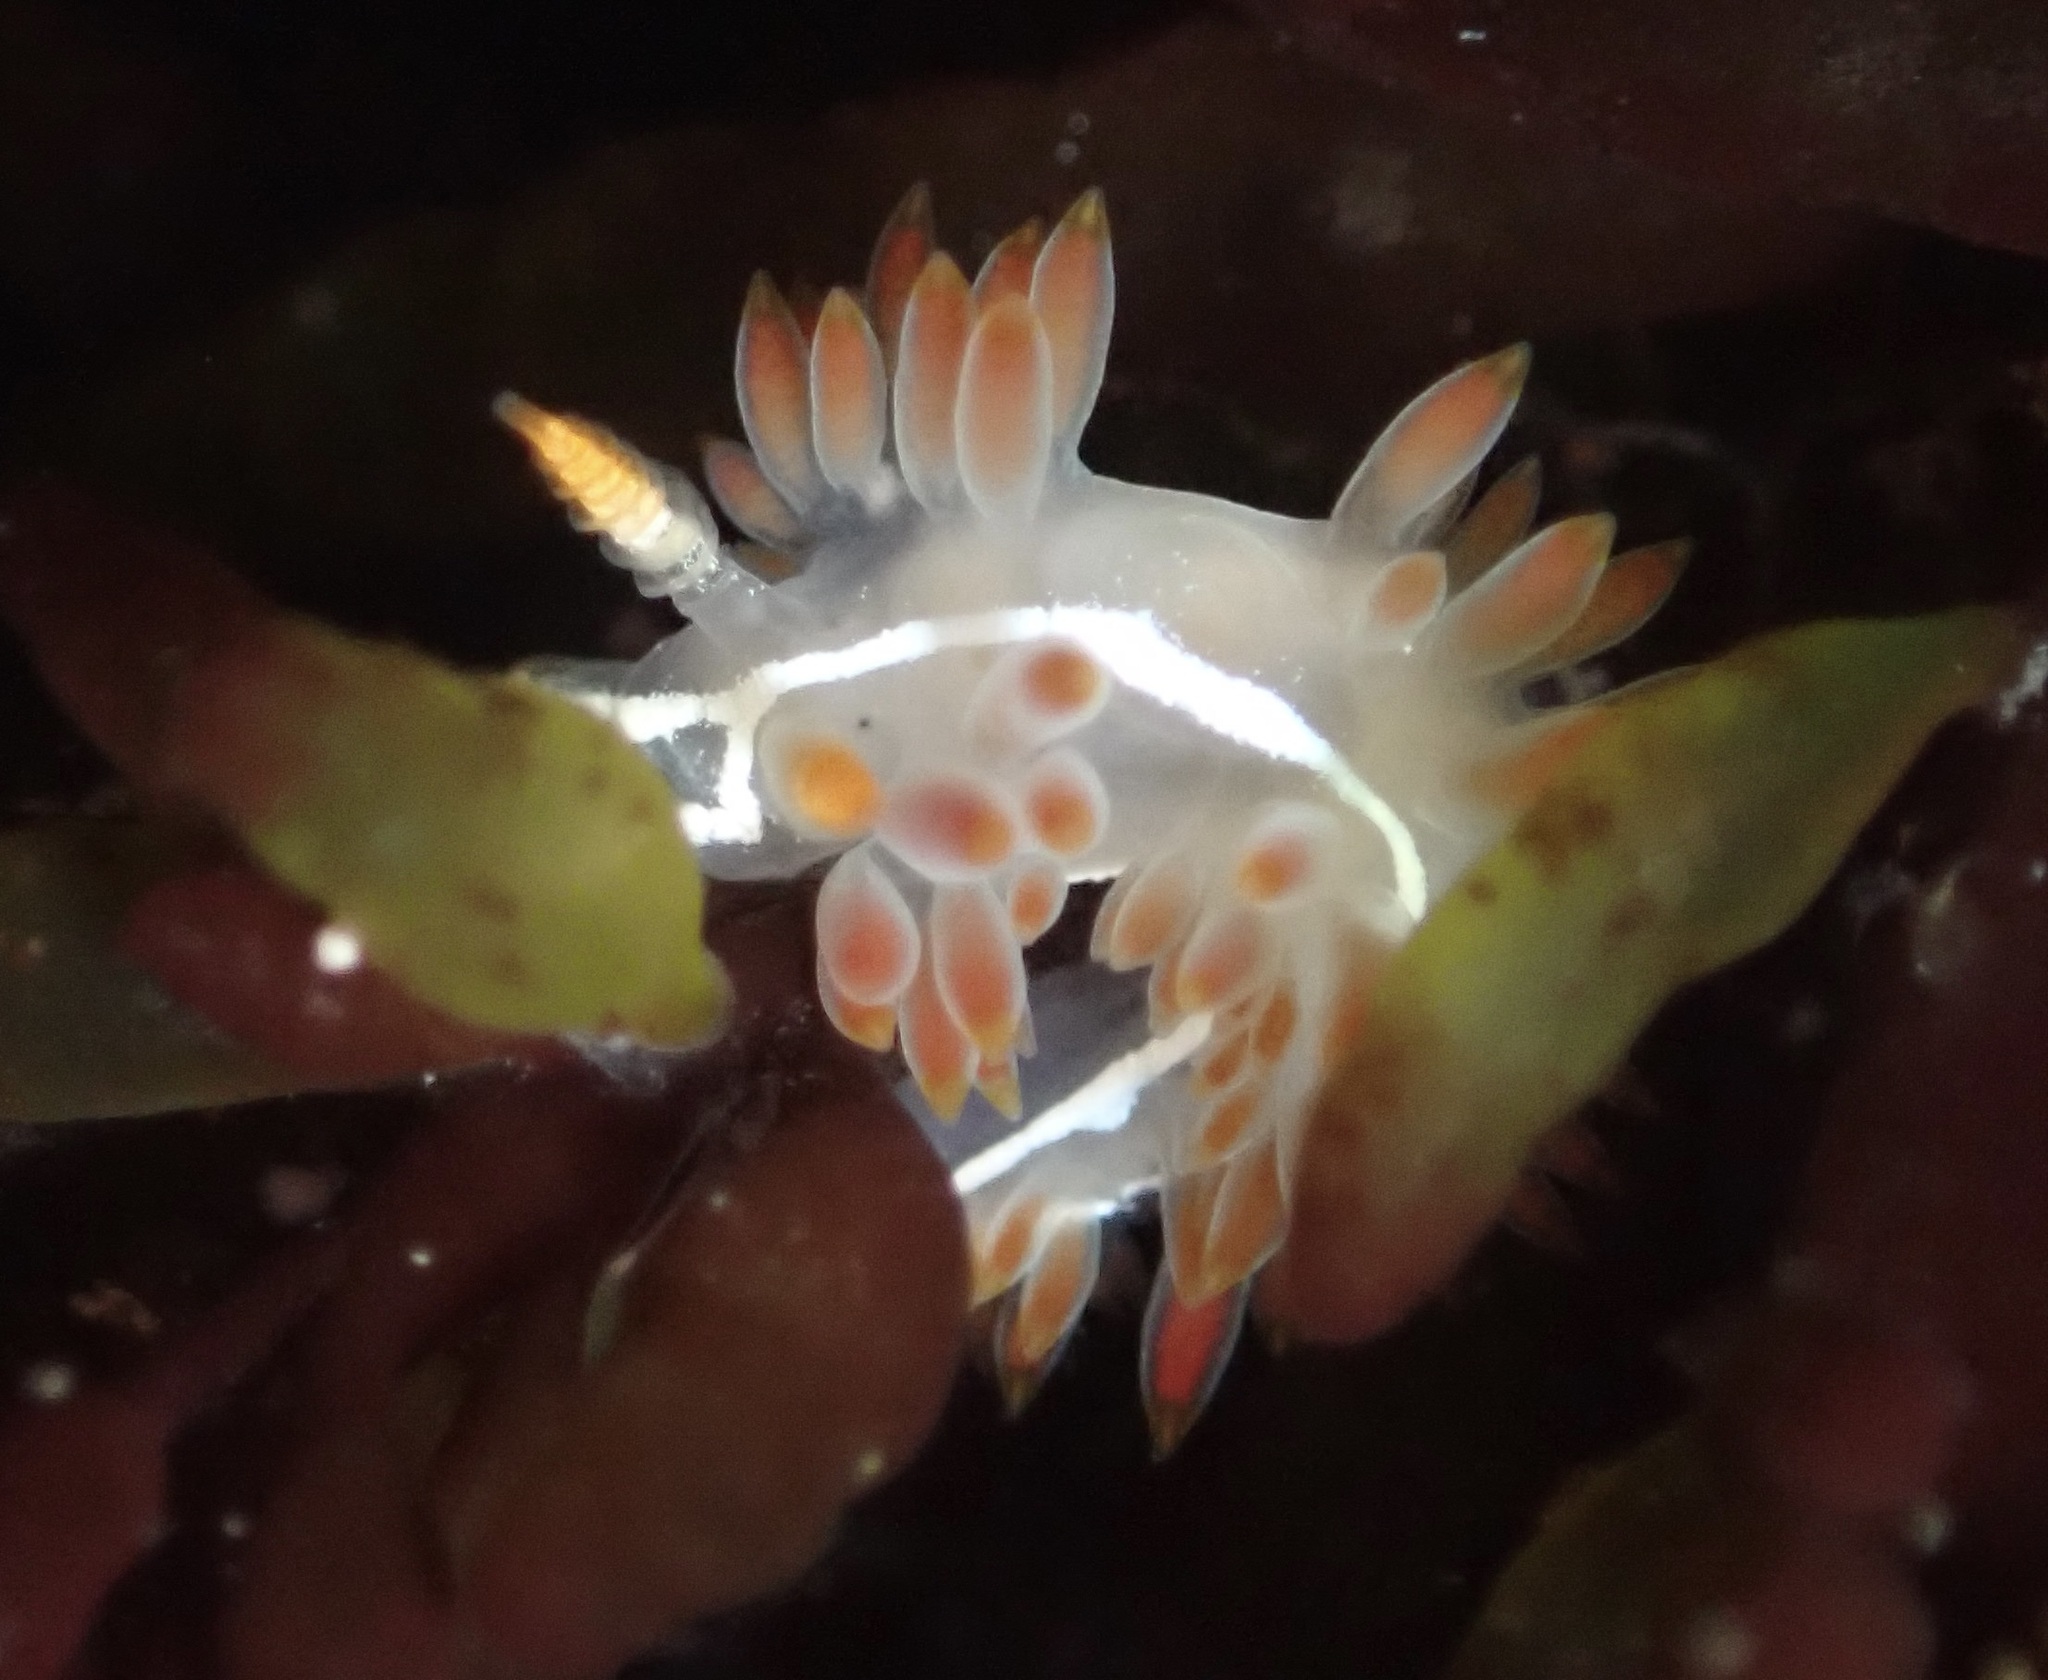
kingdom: Animalia
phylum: Mollusca
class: Gastropoda
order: Nudibranchia
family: Coryphellidae
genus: Coryphella
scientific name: Coryphella trilineata
